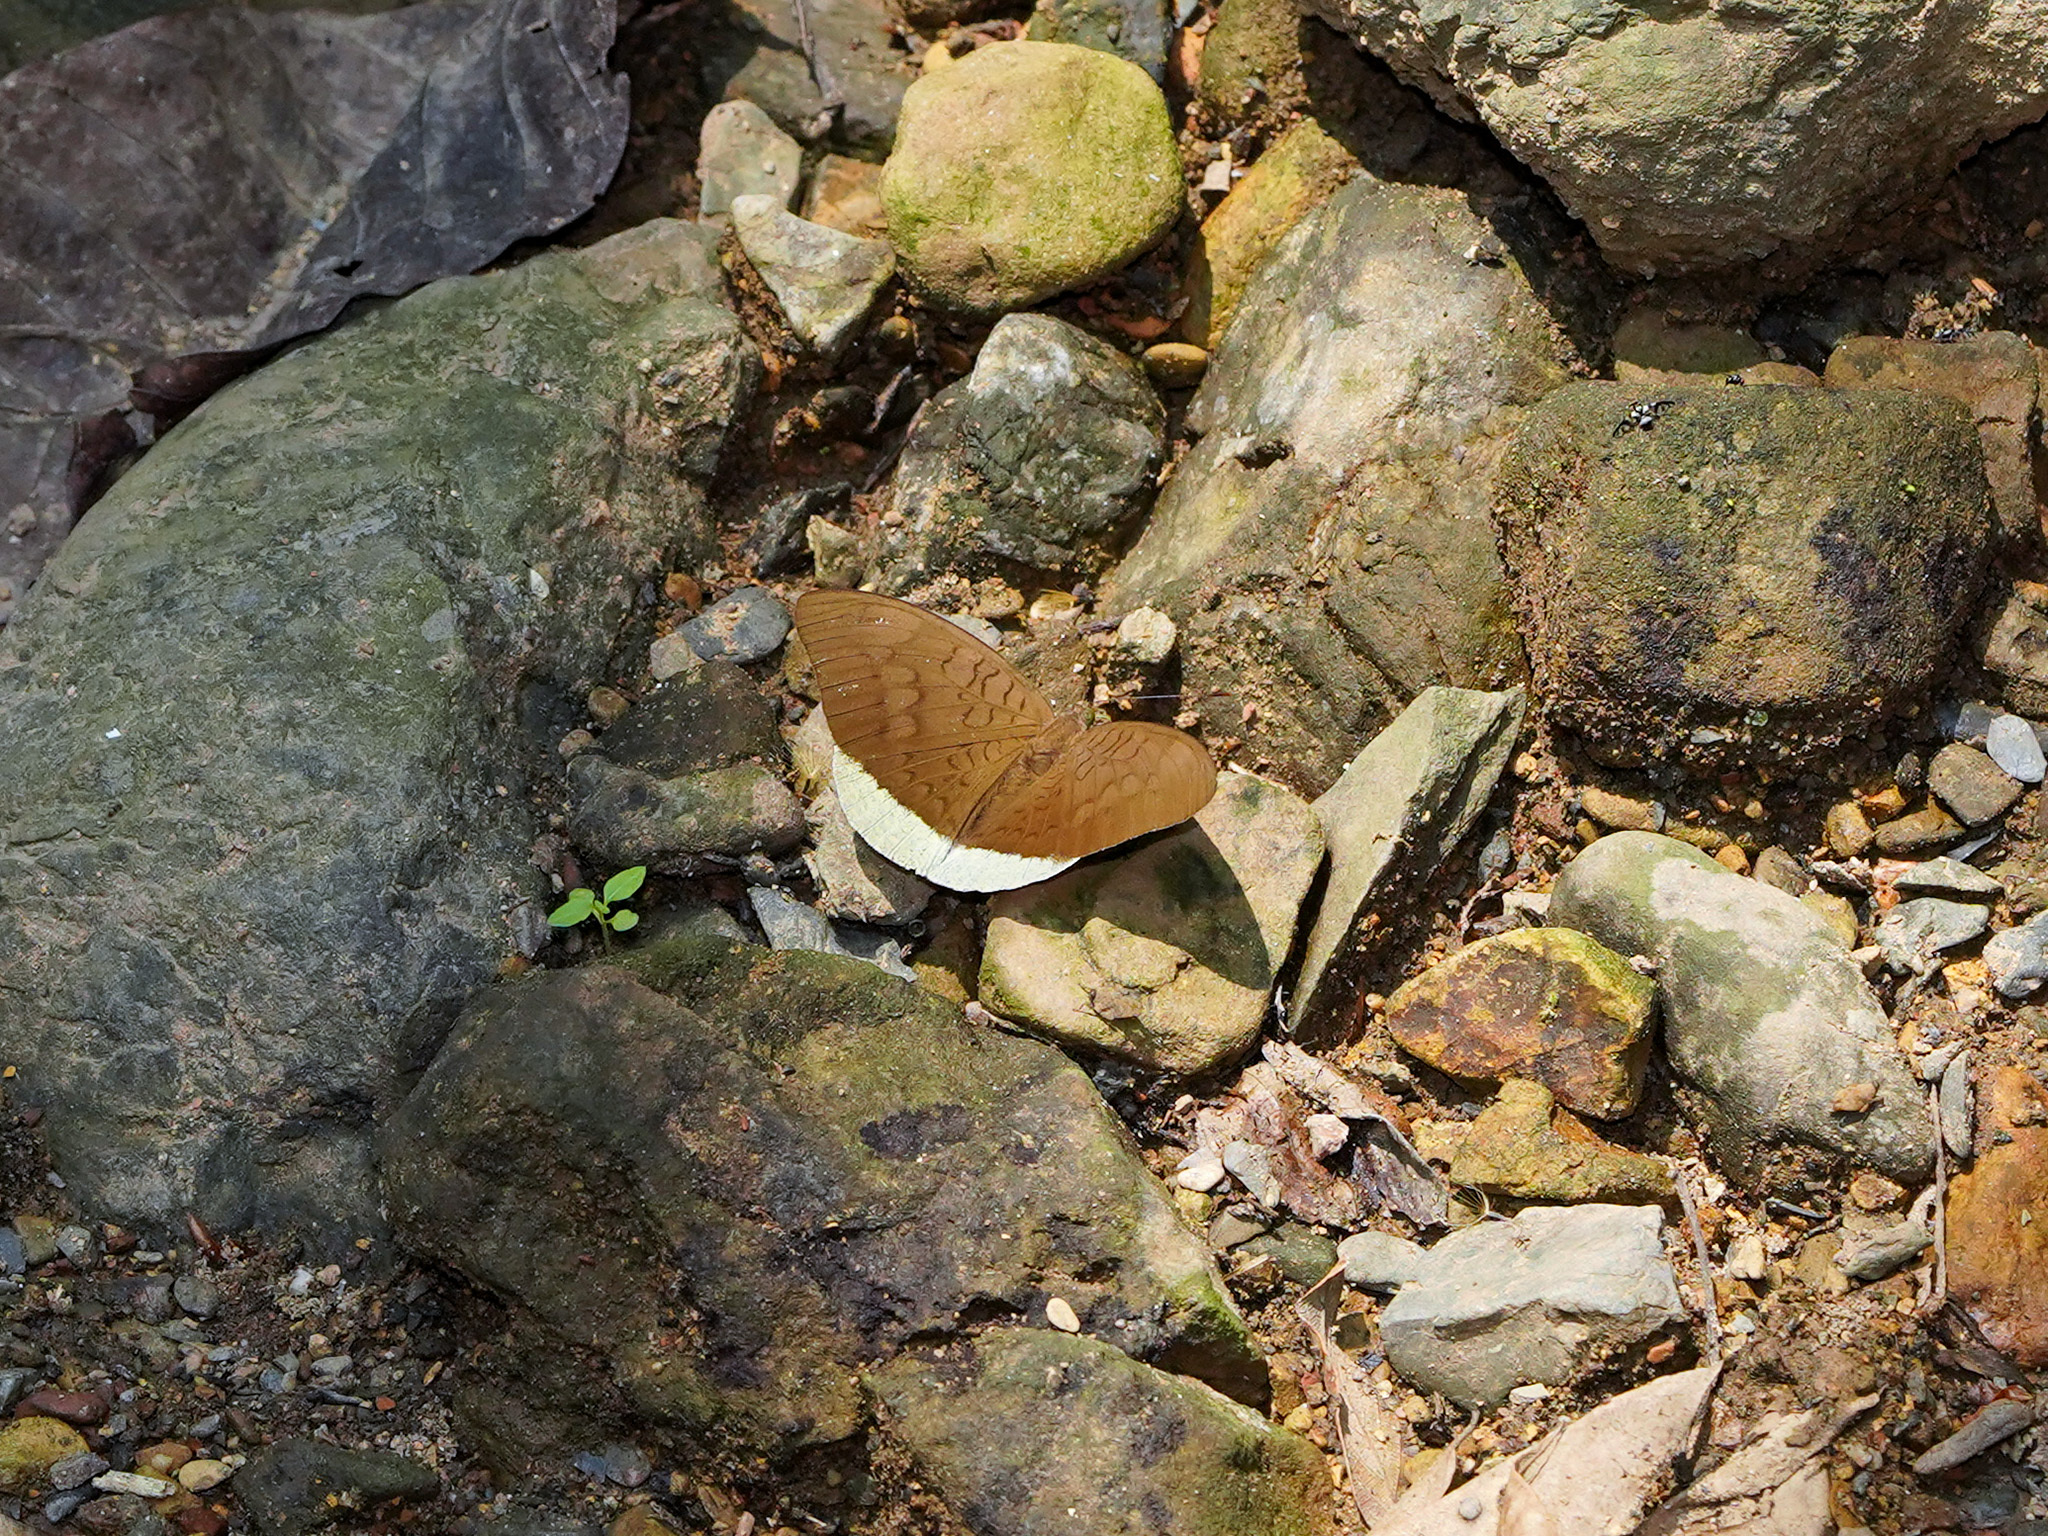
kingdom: Animalia
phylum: Arthropoda
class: Insecta
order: Lepidoptera
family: Nymphalidae
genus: Tanaecia
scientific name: Tanaecia julii
